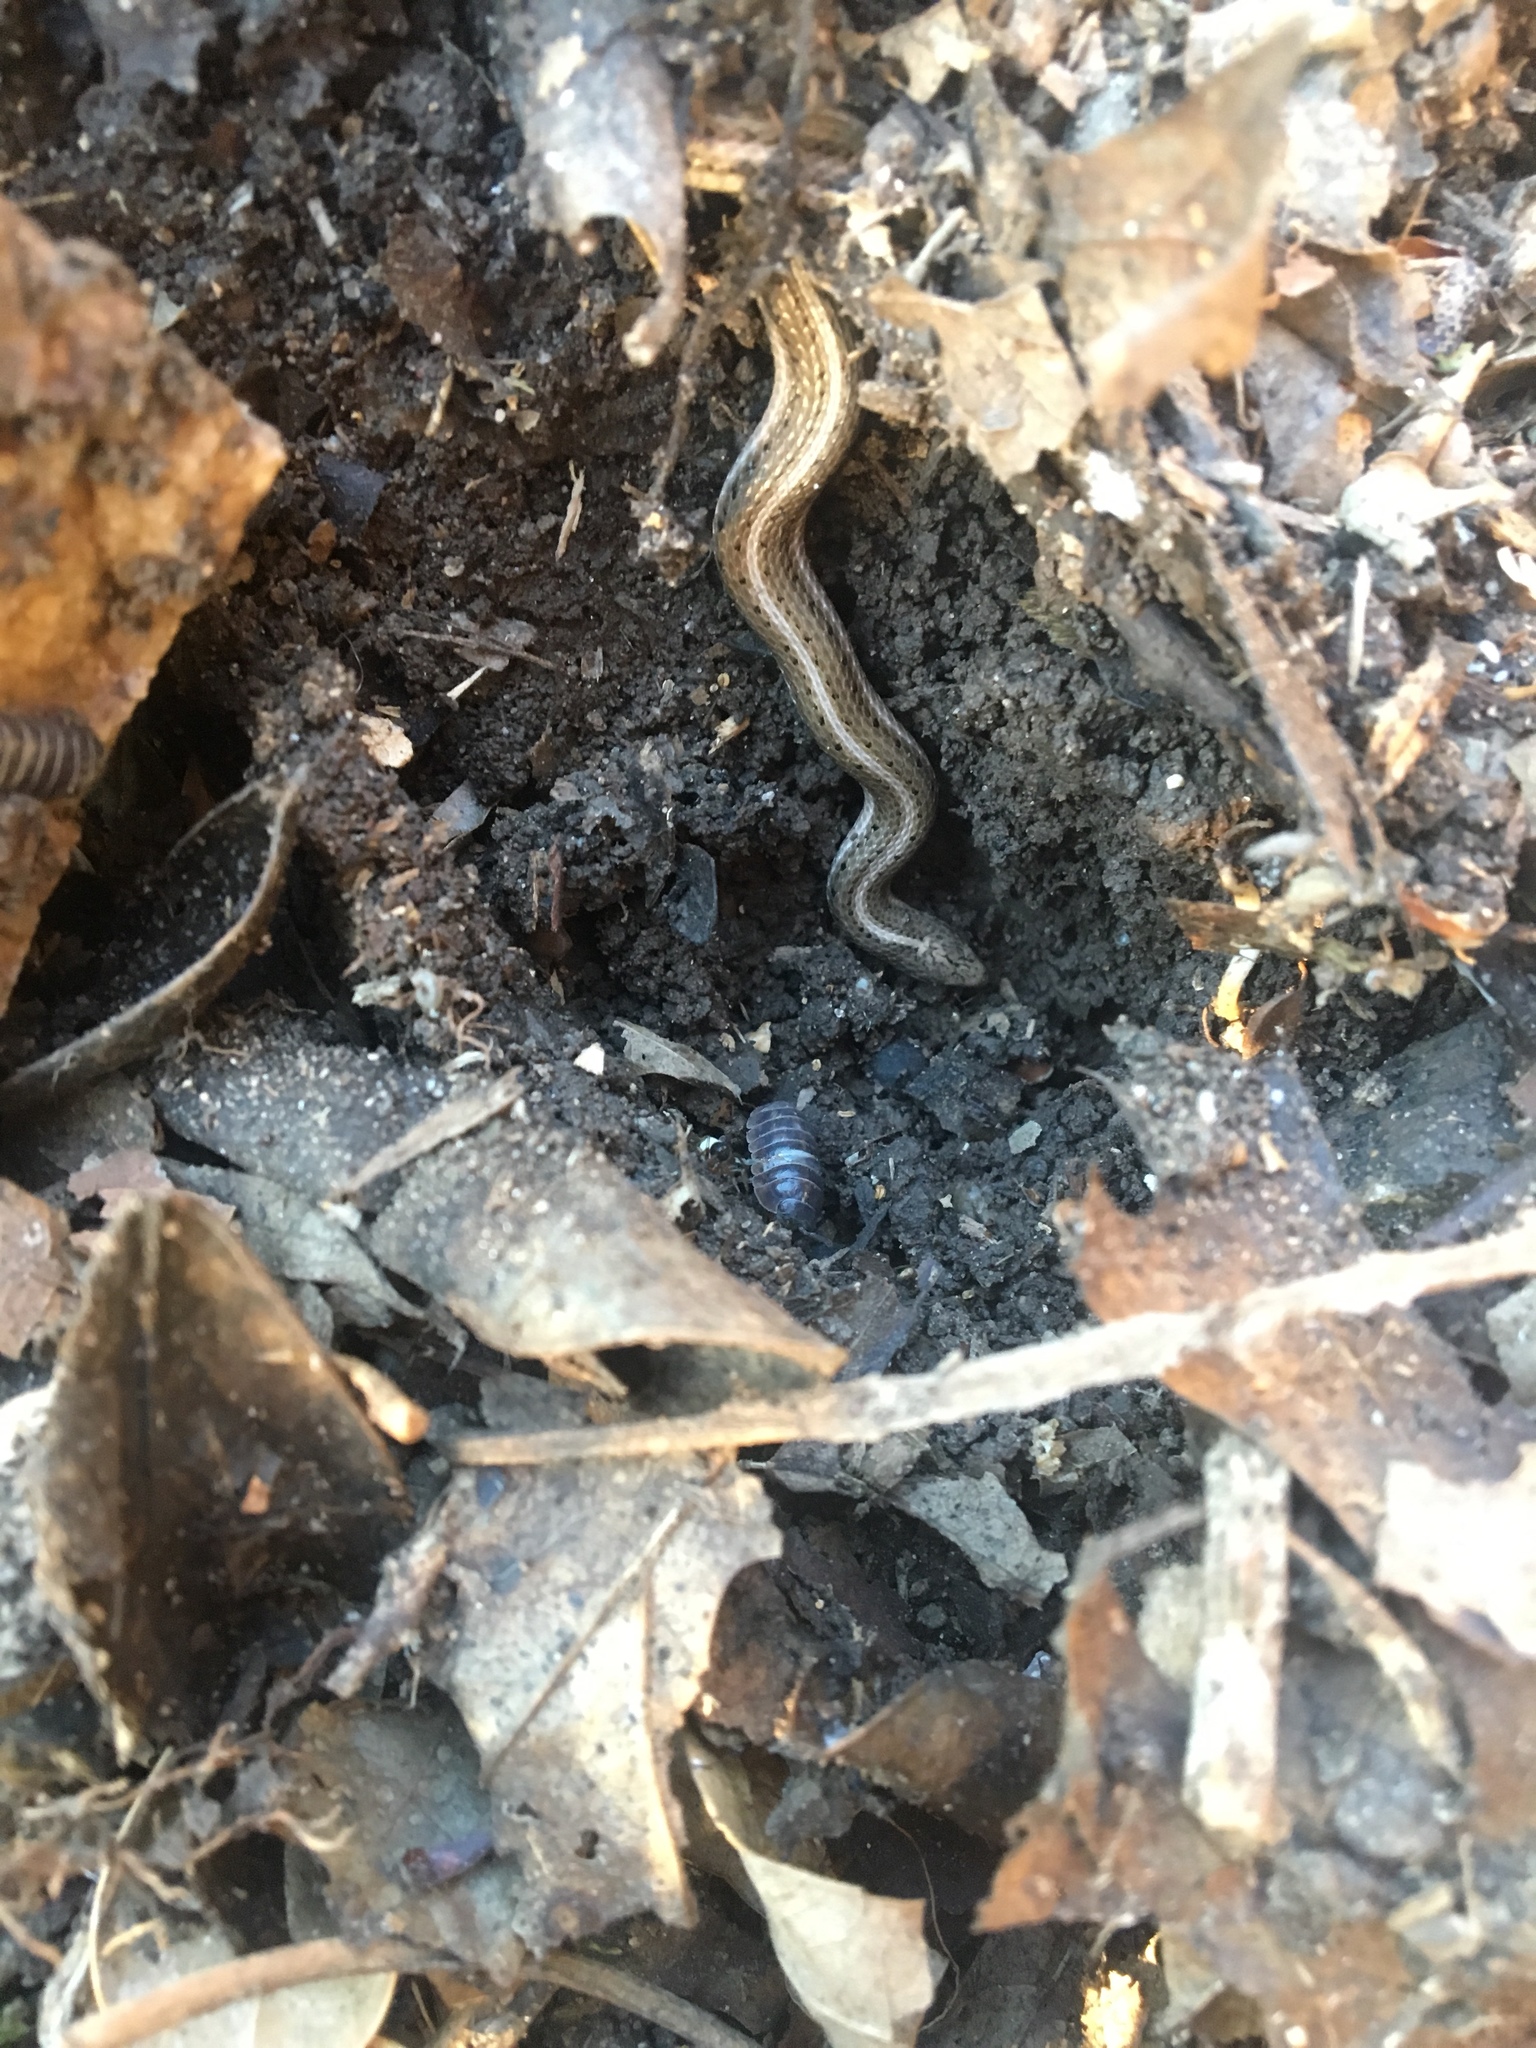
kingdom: Animalia
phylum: Chordata
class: Squamata
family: Colubridae
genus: Tropidoclonion
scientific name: Tropidoclonion lineatum
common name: Lined snake
